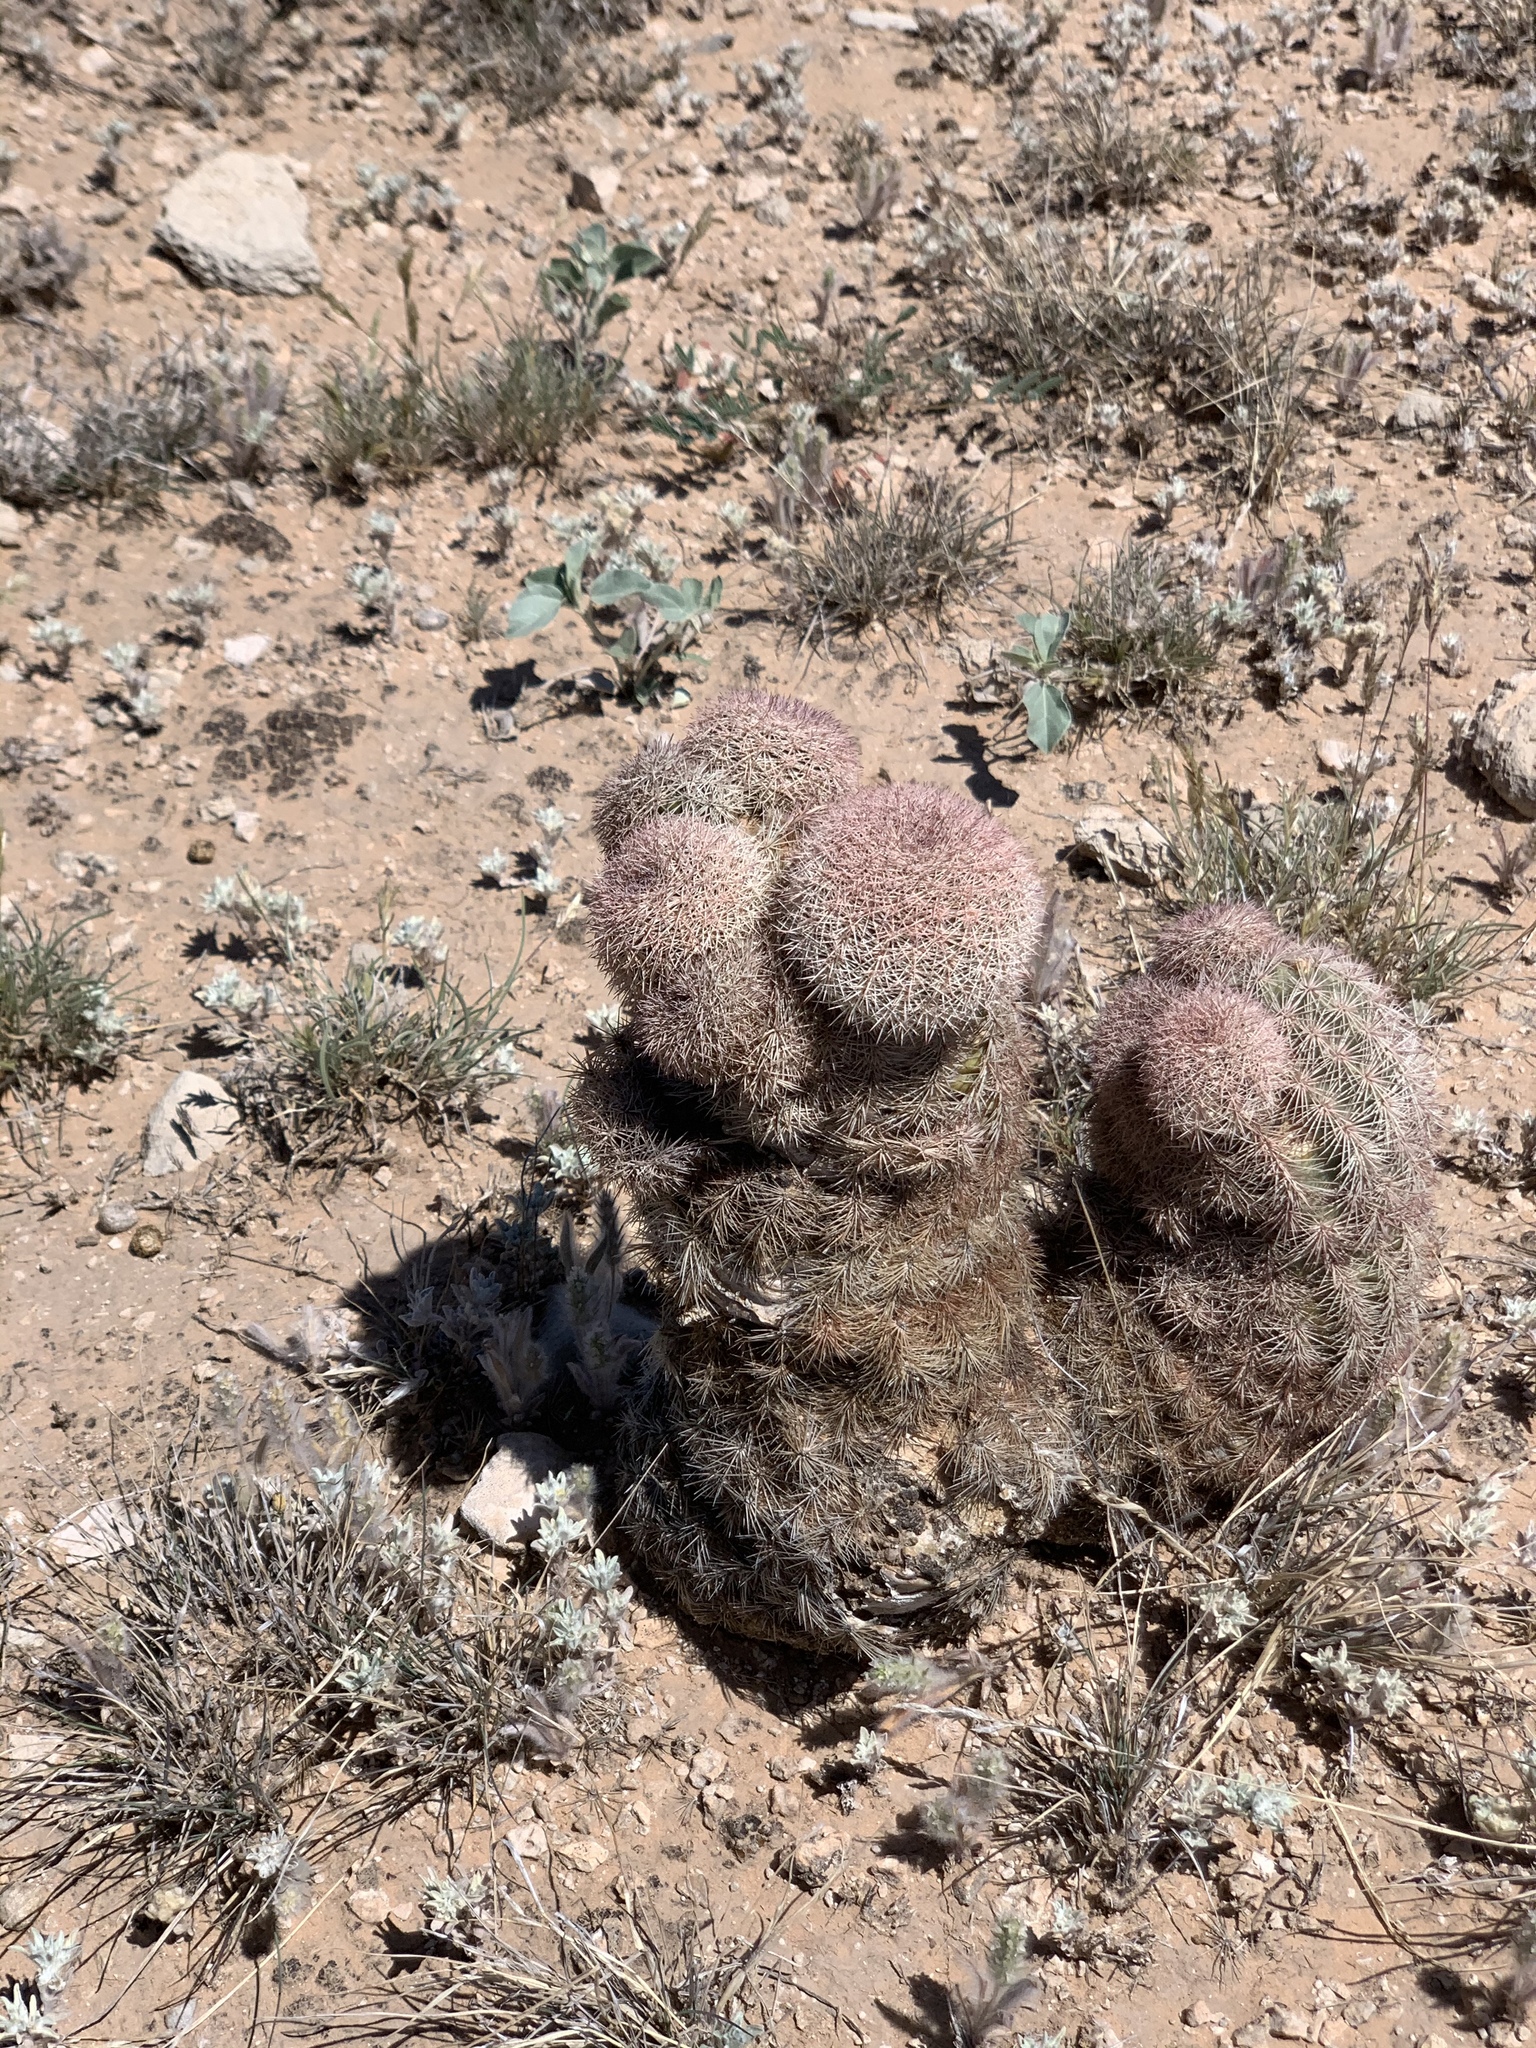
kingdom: Plantae
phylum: Tracheophyta
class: Magnoliopsida
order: Caryophyllales
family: Cactaceae
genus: Echinocereus
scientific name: Echinocereus dasyacanthus
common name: Spiny hedgehog cactus
